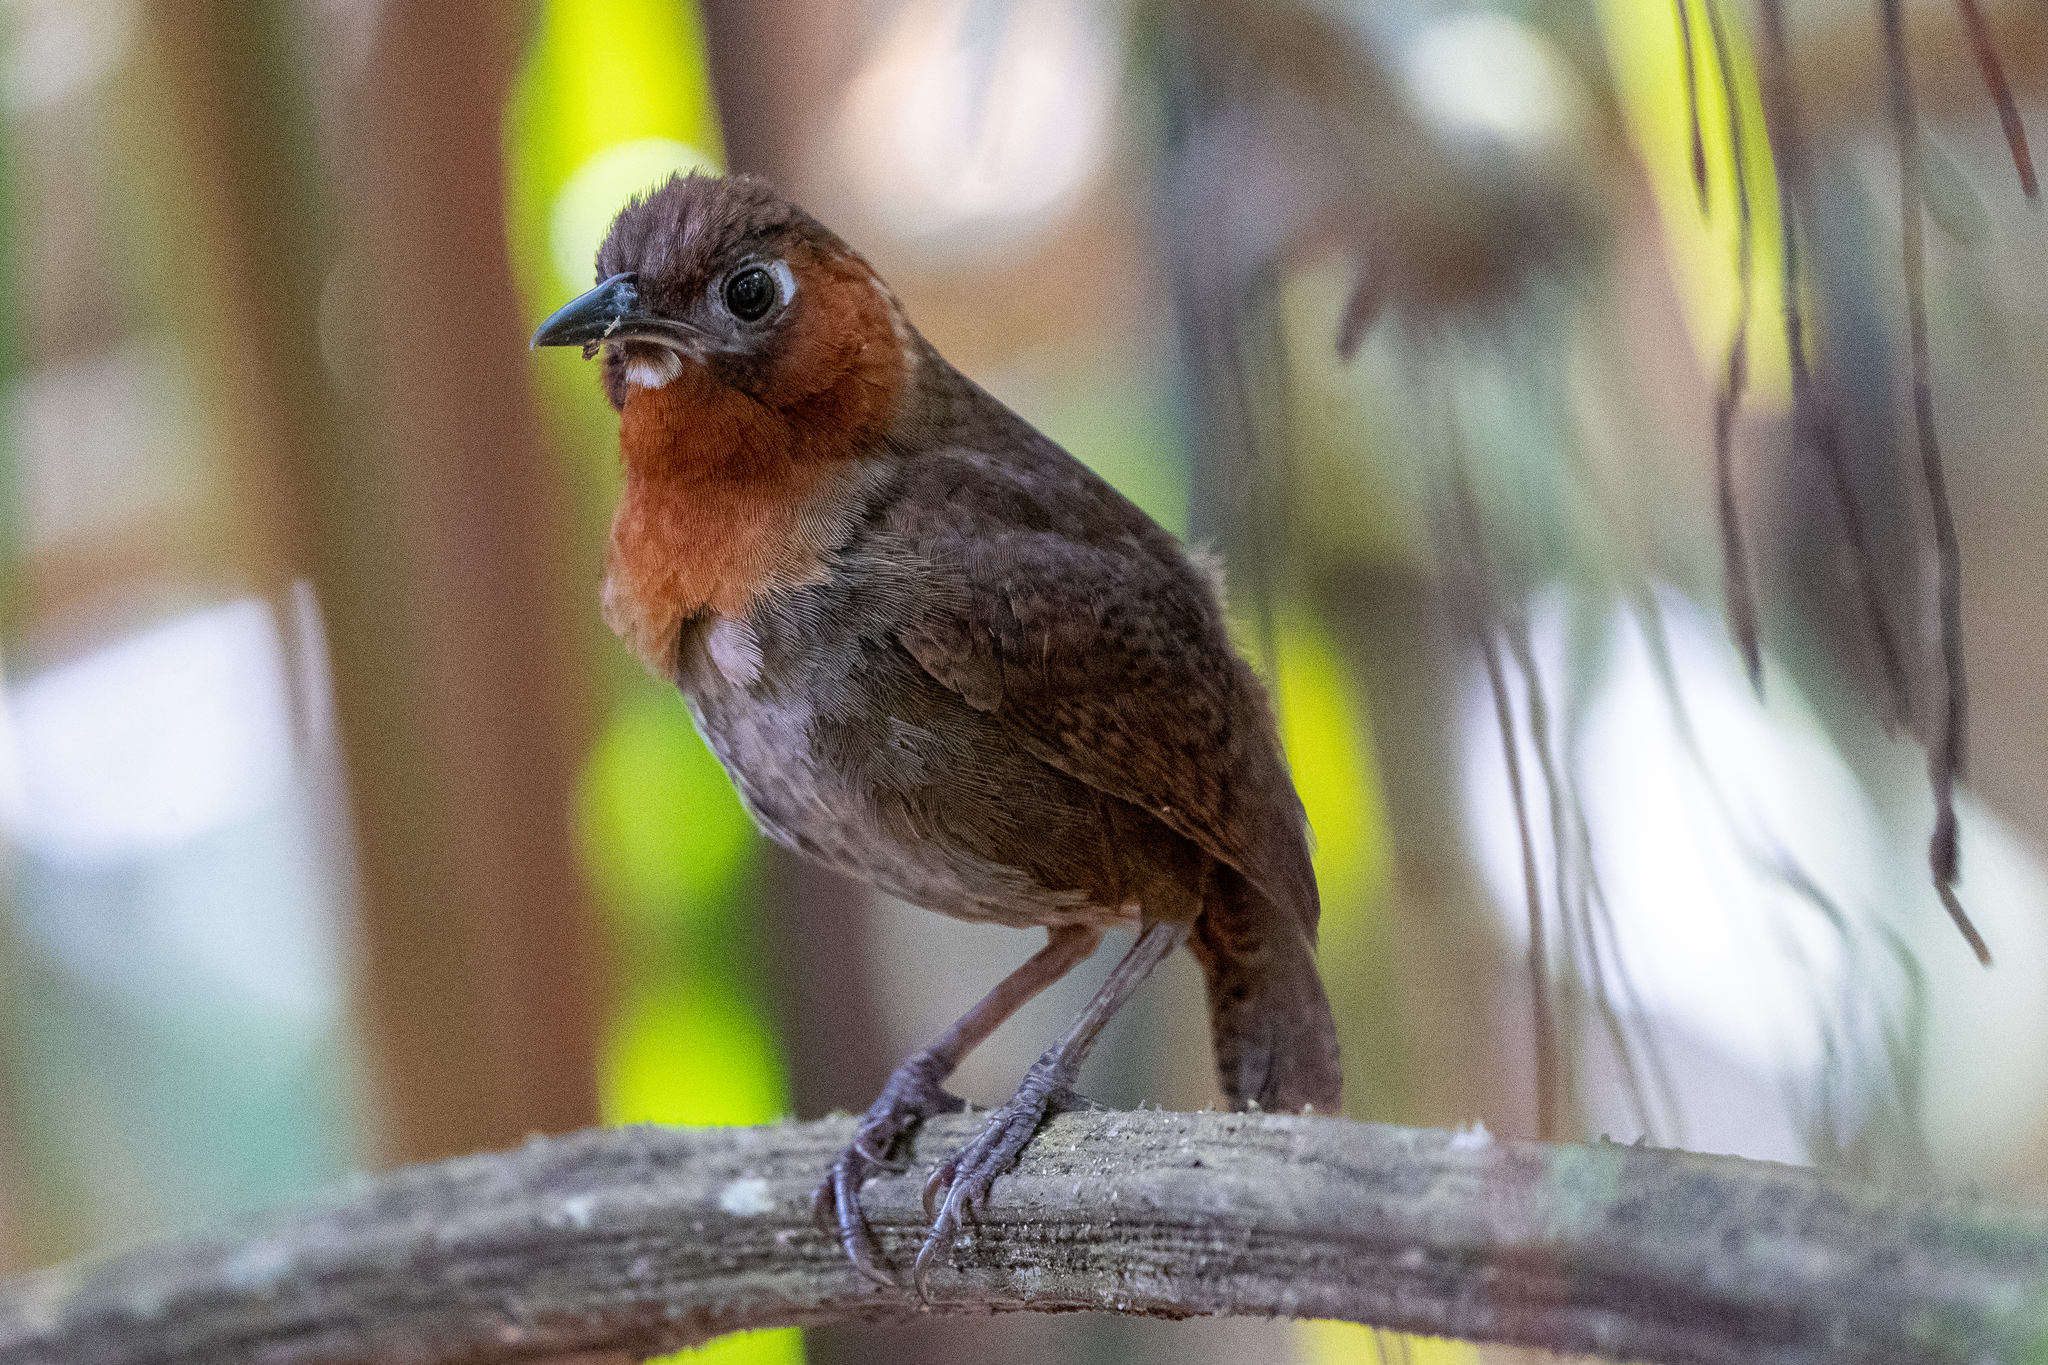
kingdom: Animalia
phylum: Chordata
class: Aves
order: Passeriformes
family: Troglodytidae
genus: Cyphorhinus
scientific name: Cyphorhinus phaeocephalus
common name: Song wren
